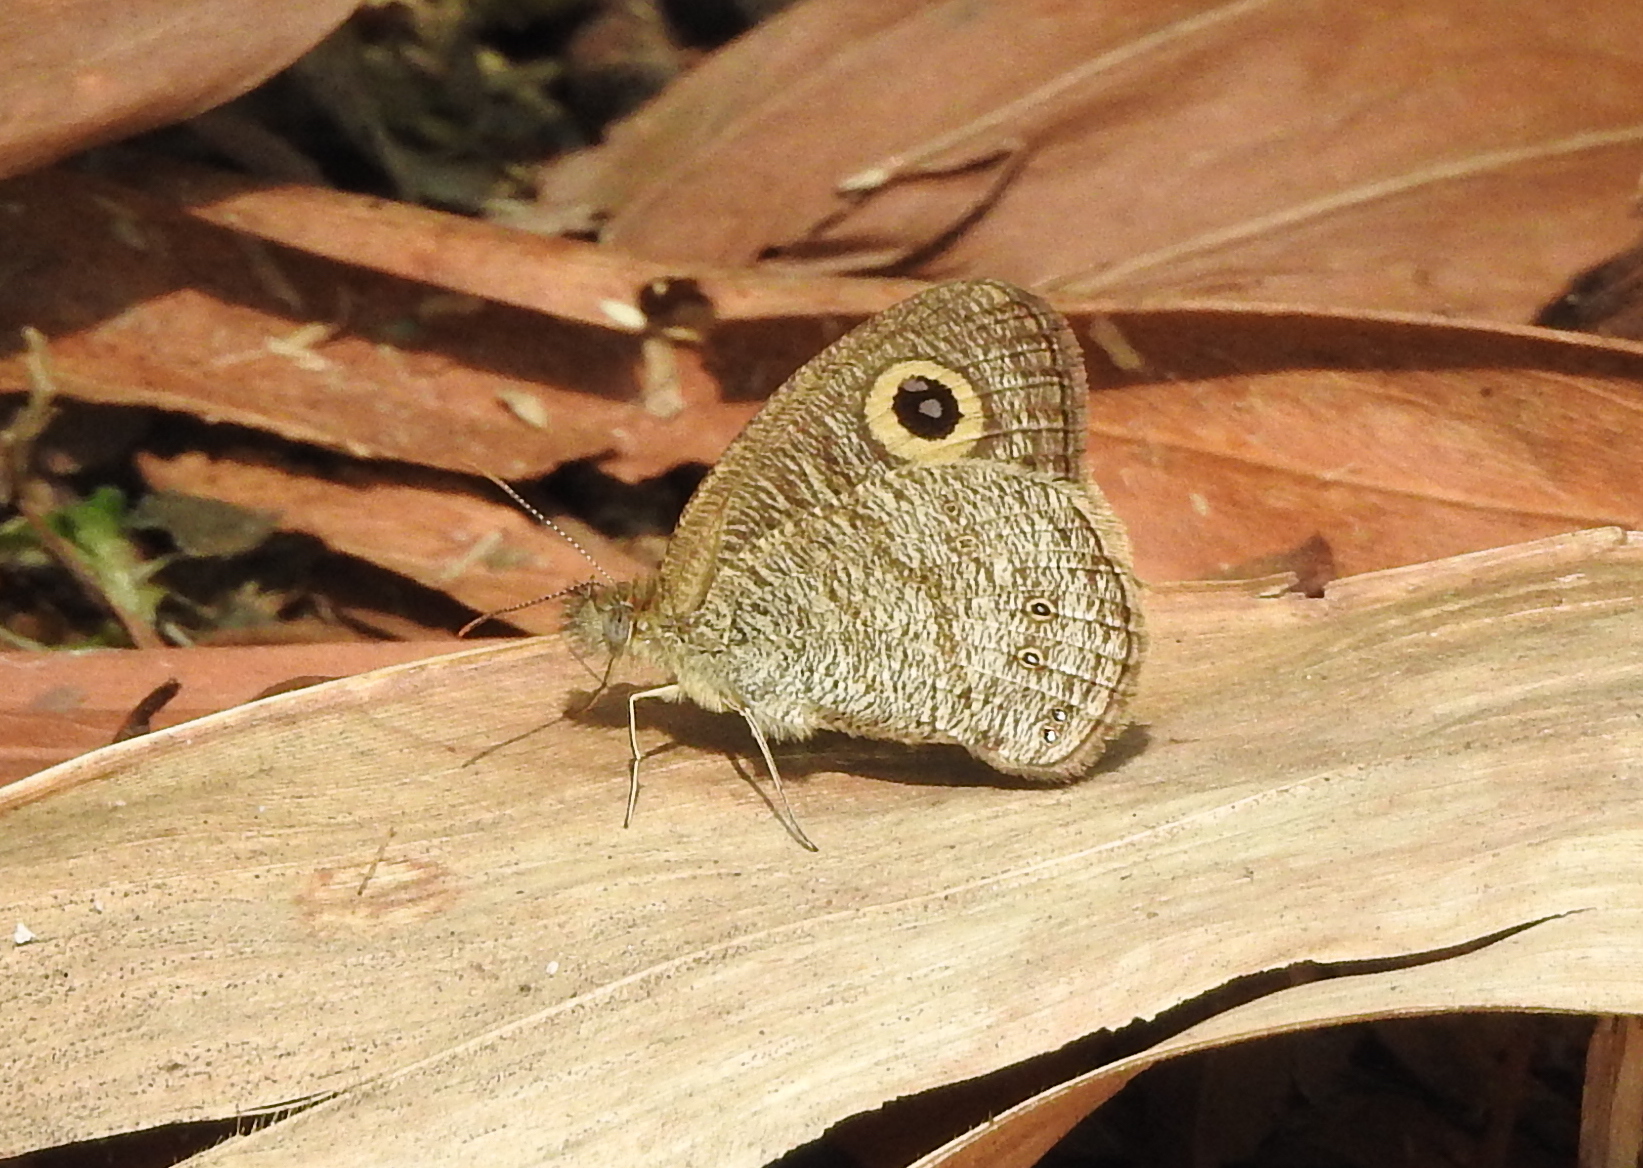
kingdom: Animalia
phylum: Arthropoda
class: Insecta
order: Lepidoptera
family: Nymphalidae
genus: Ypthima
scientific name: Ypthima baldus
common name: Common five-ring
